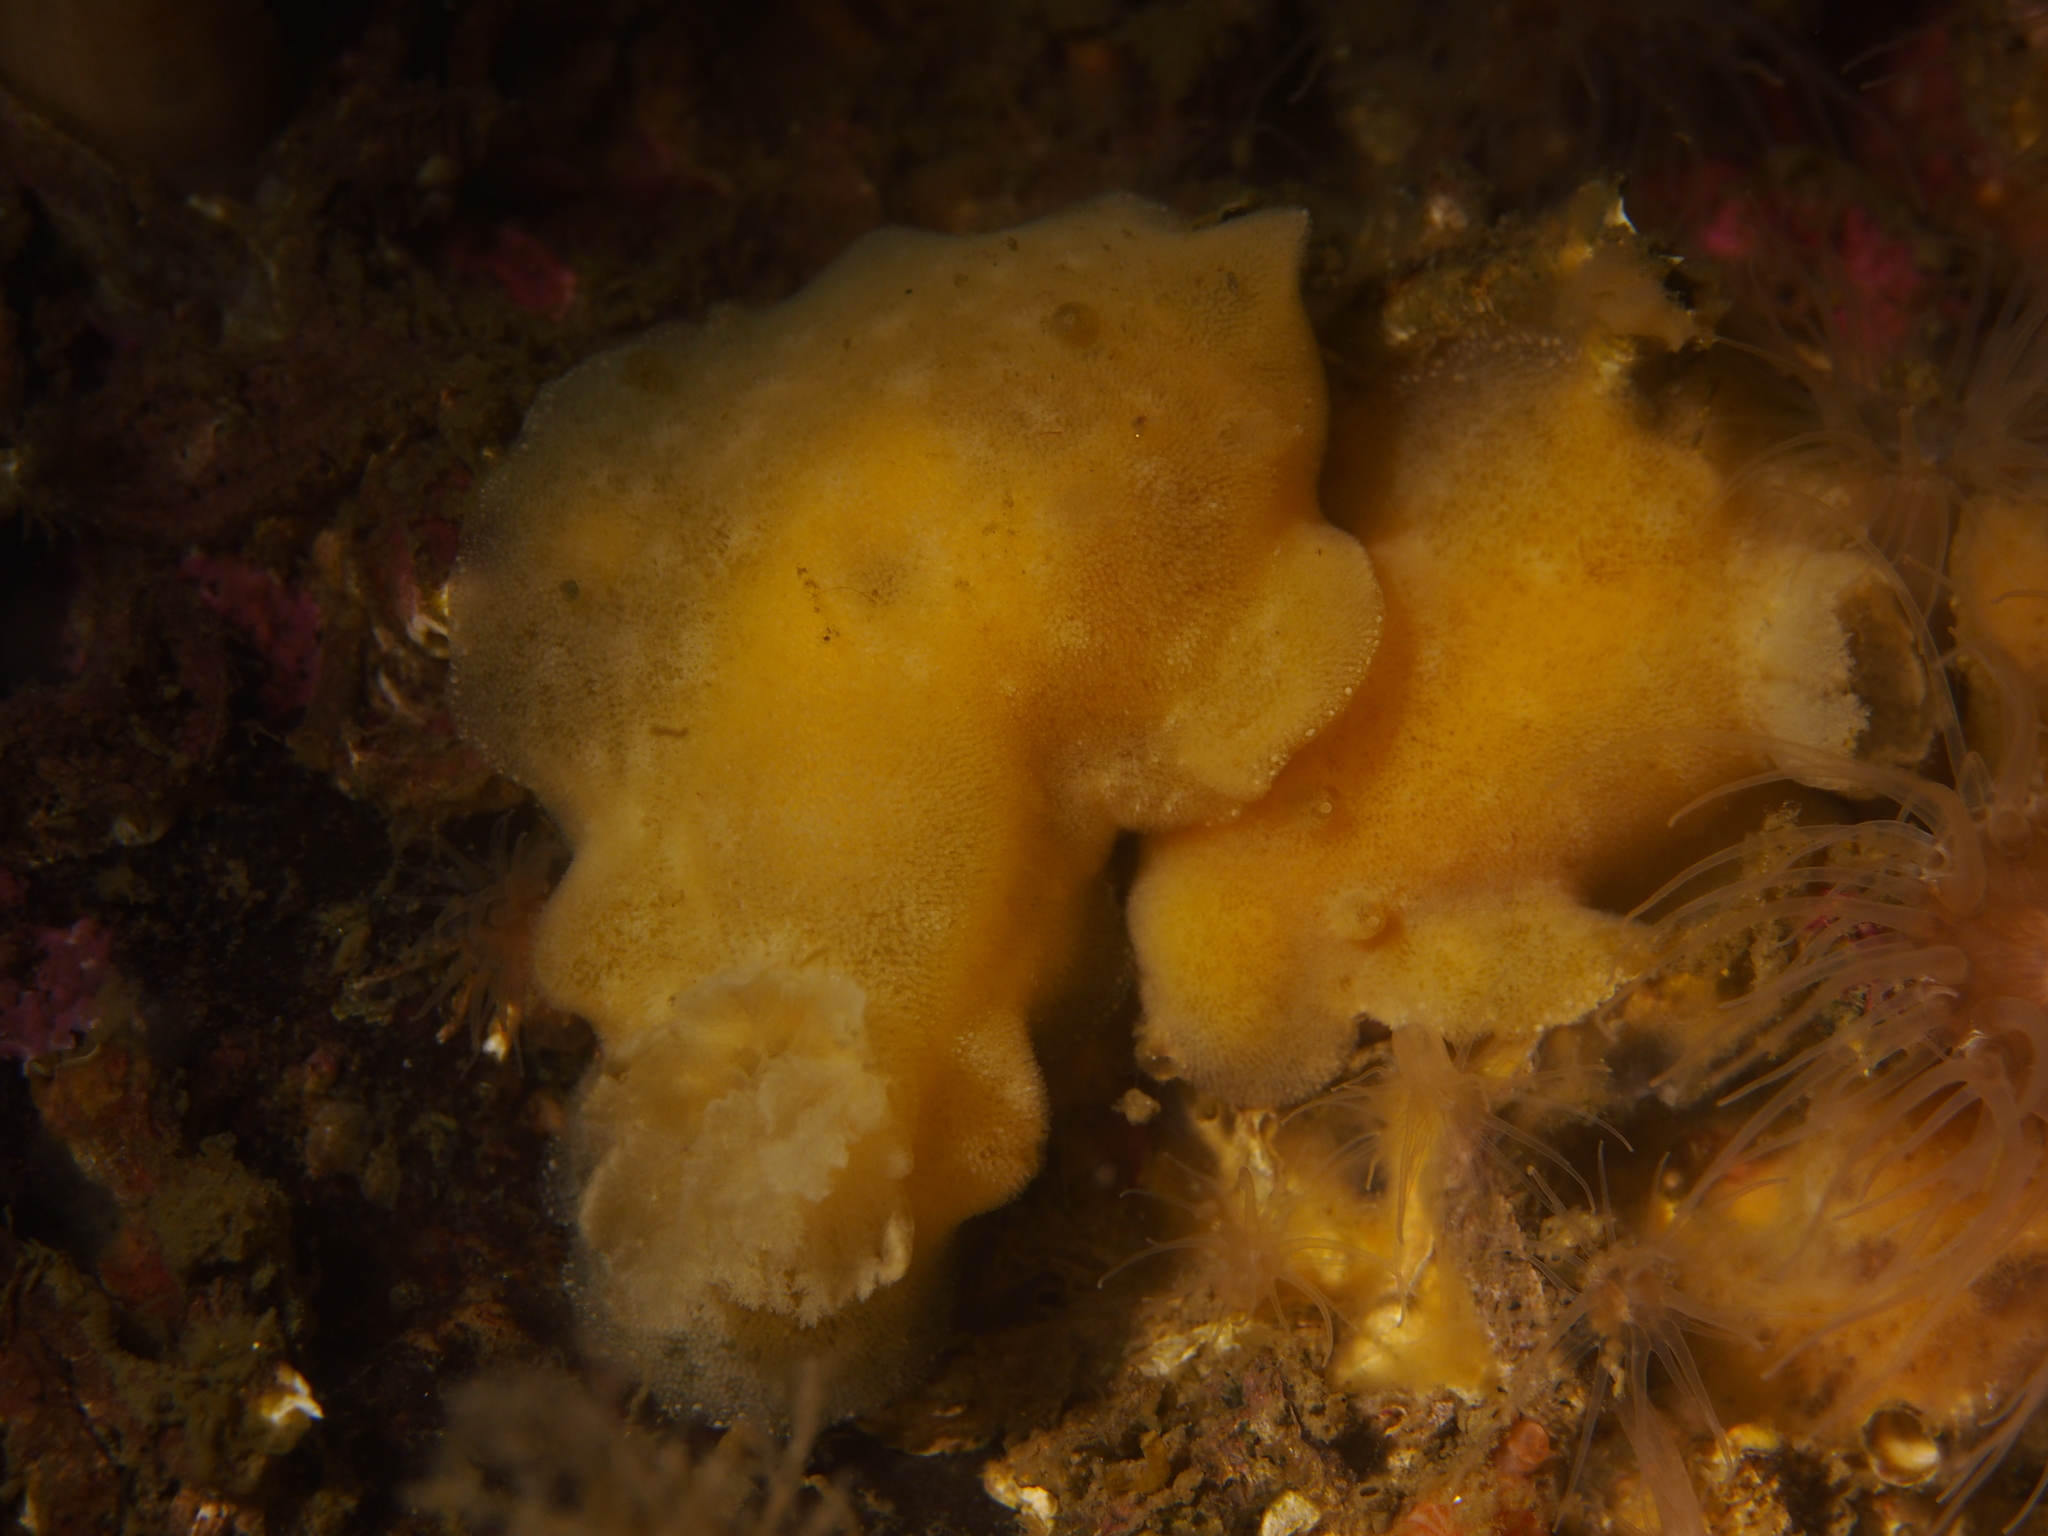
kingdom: Animalia
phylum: Mollusca
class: Gastropoda
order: Nudibranchia
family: Discodorididae
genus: Jorunna
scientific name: Jorunna tomentosa
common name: Grey sea slug
